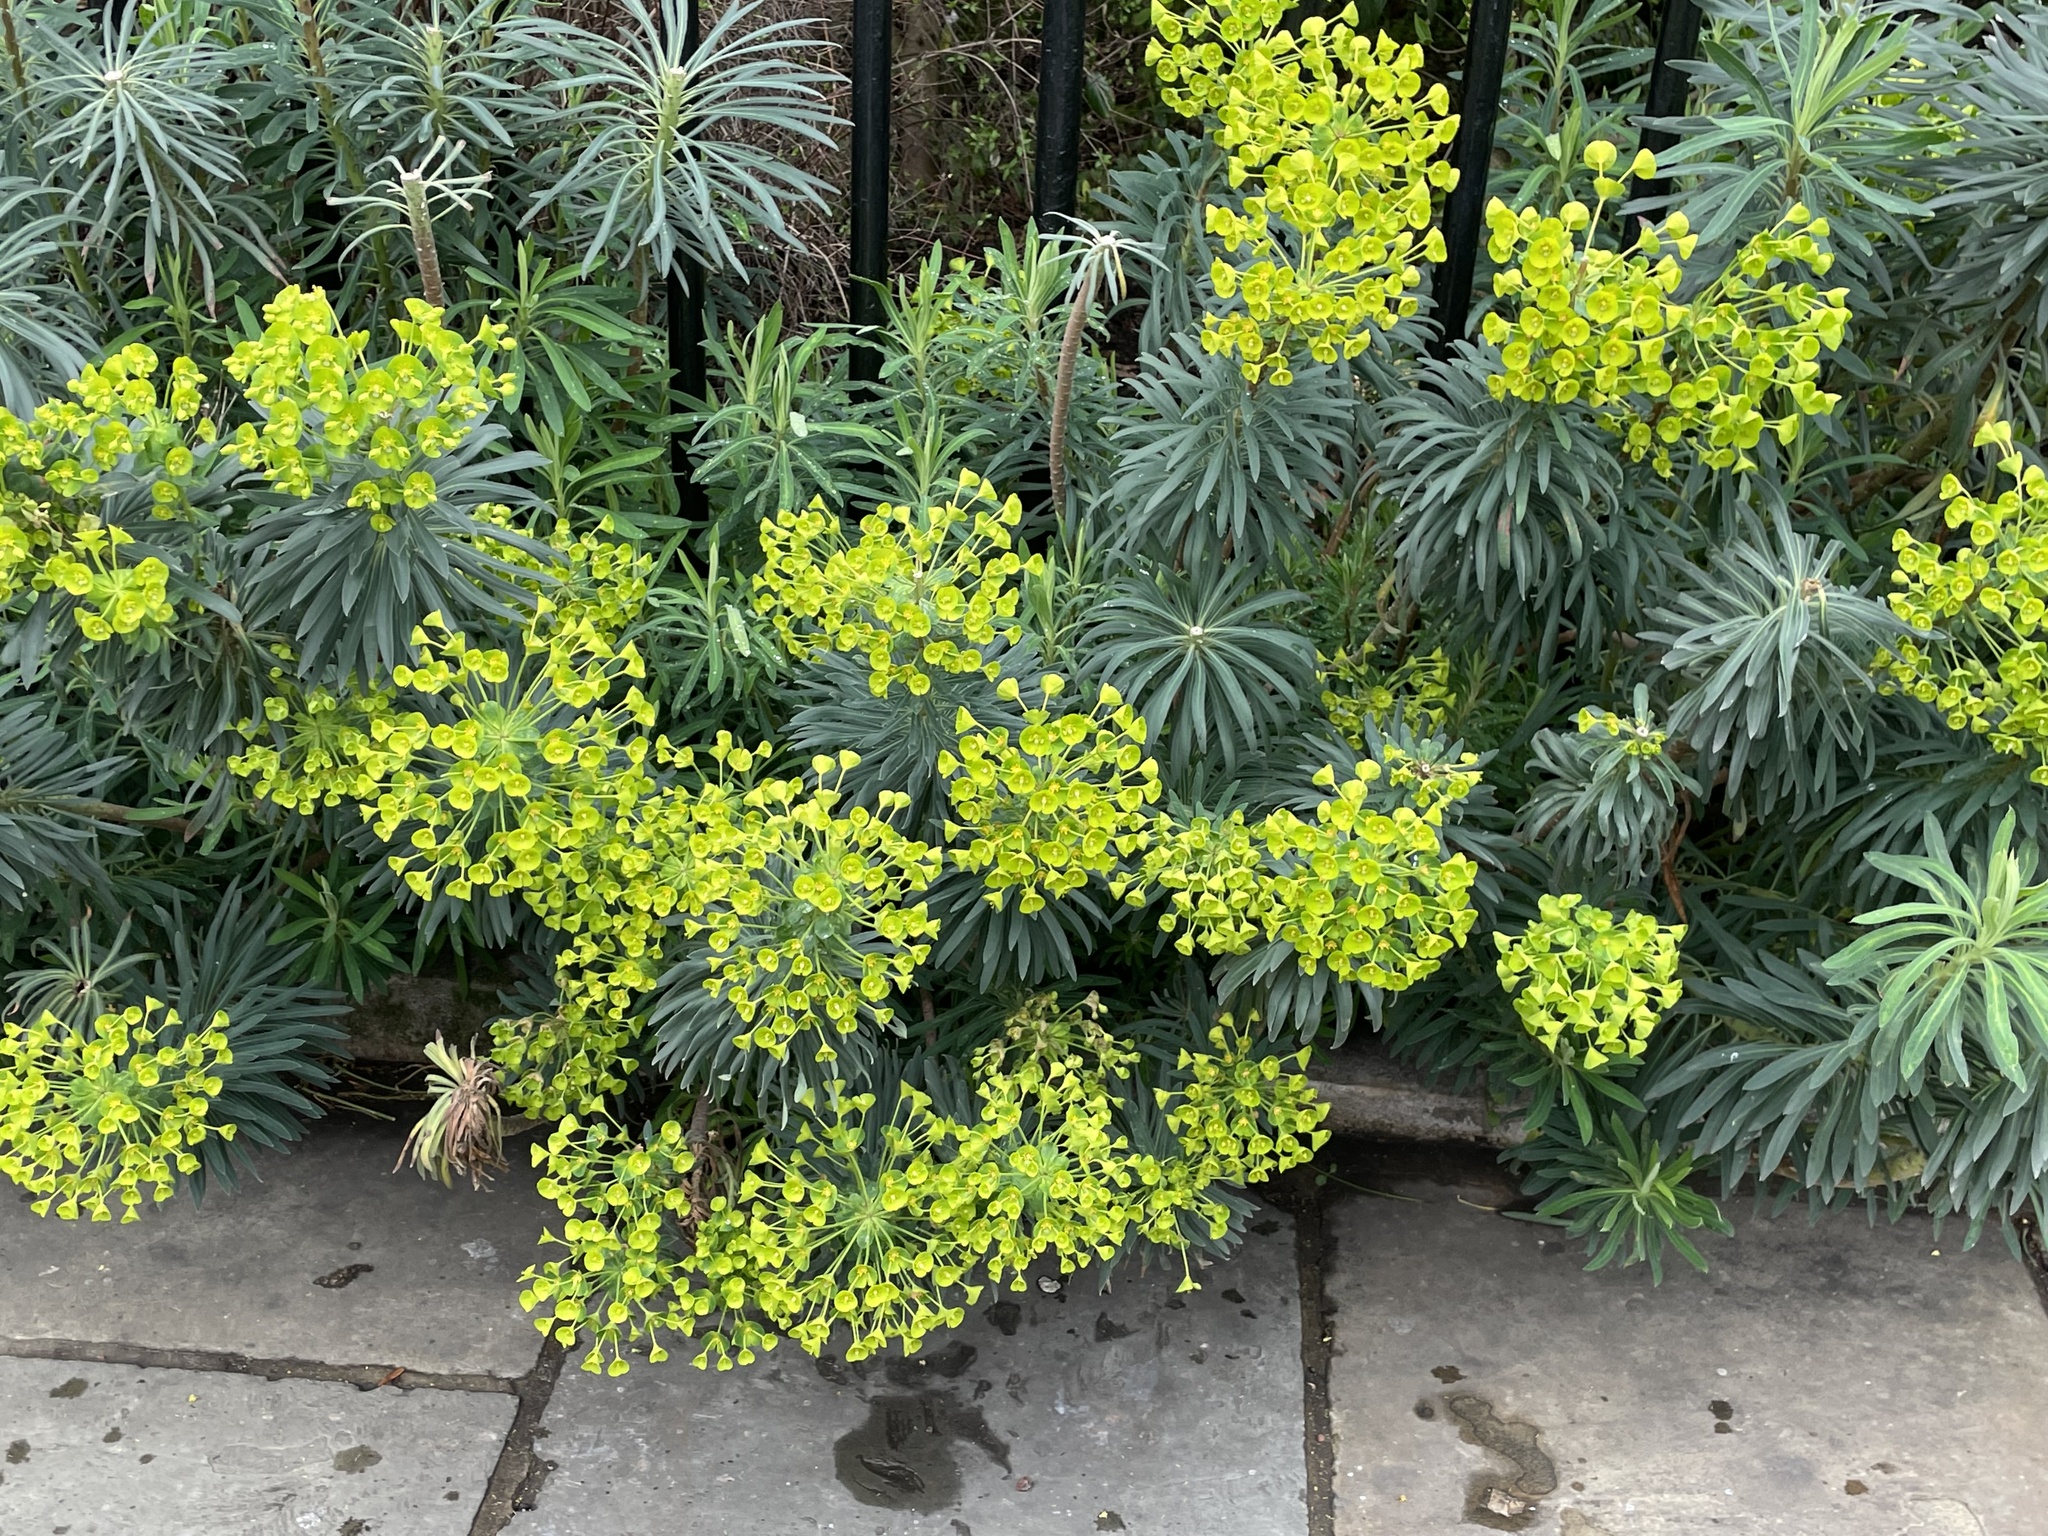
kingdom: Plantae
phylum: Tracheophyta
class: Magnoliopsida
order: Malpighiales
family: Euphorbiaceae
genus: Euphorbia
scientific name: Euphorbia characias
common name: Mediterranean spurge
